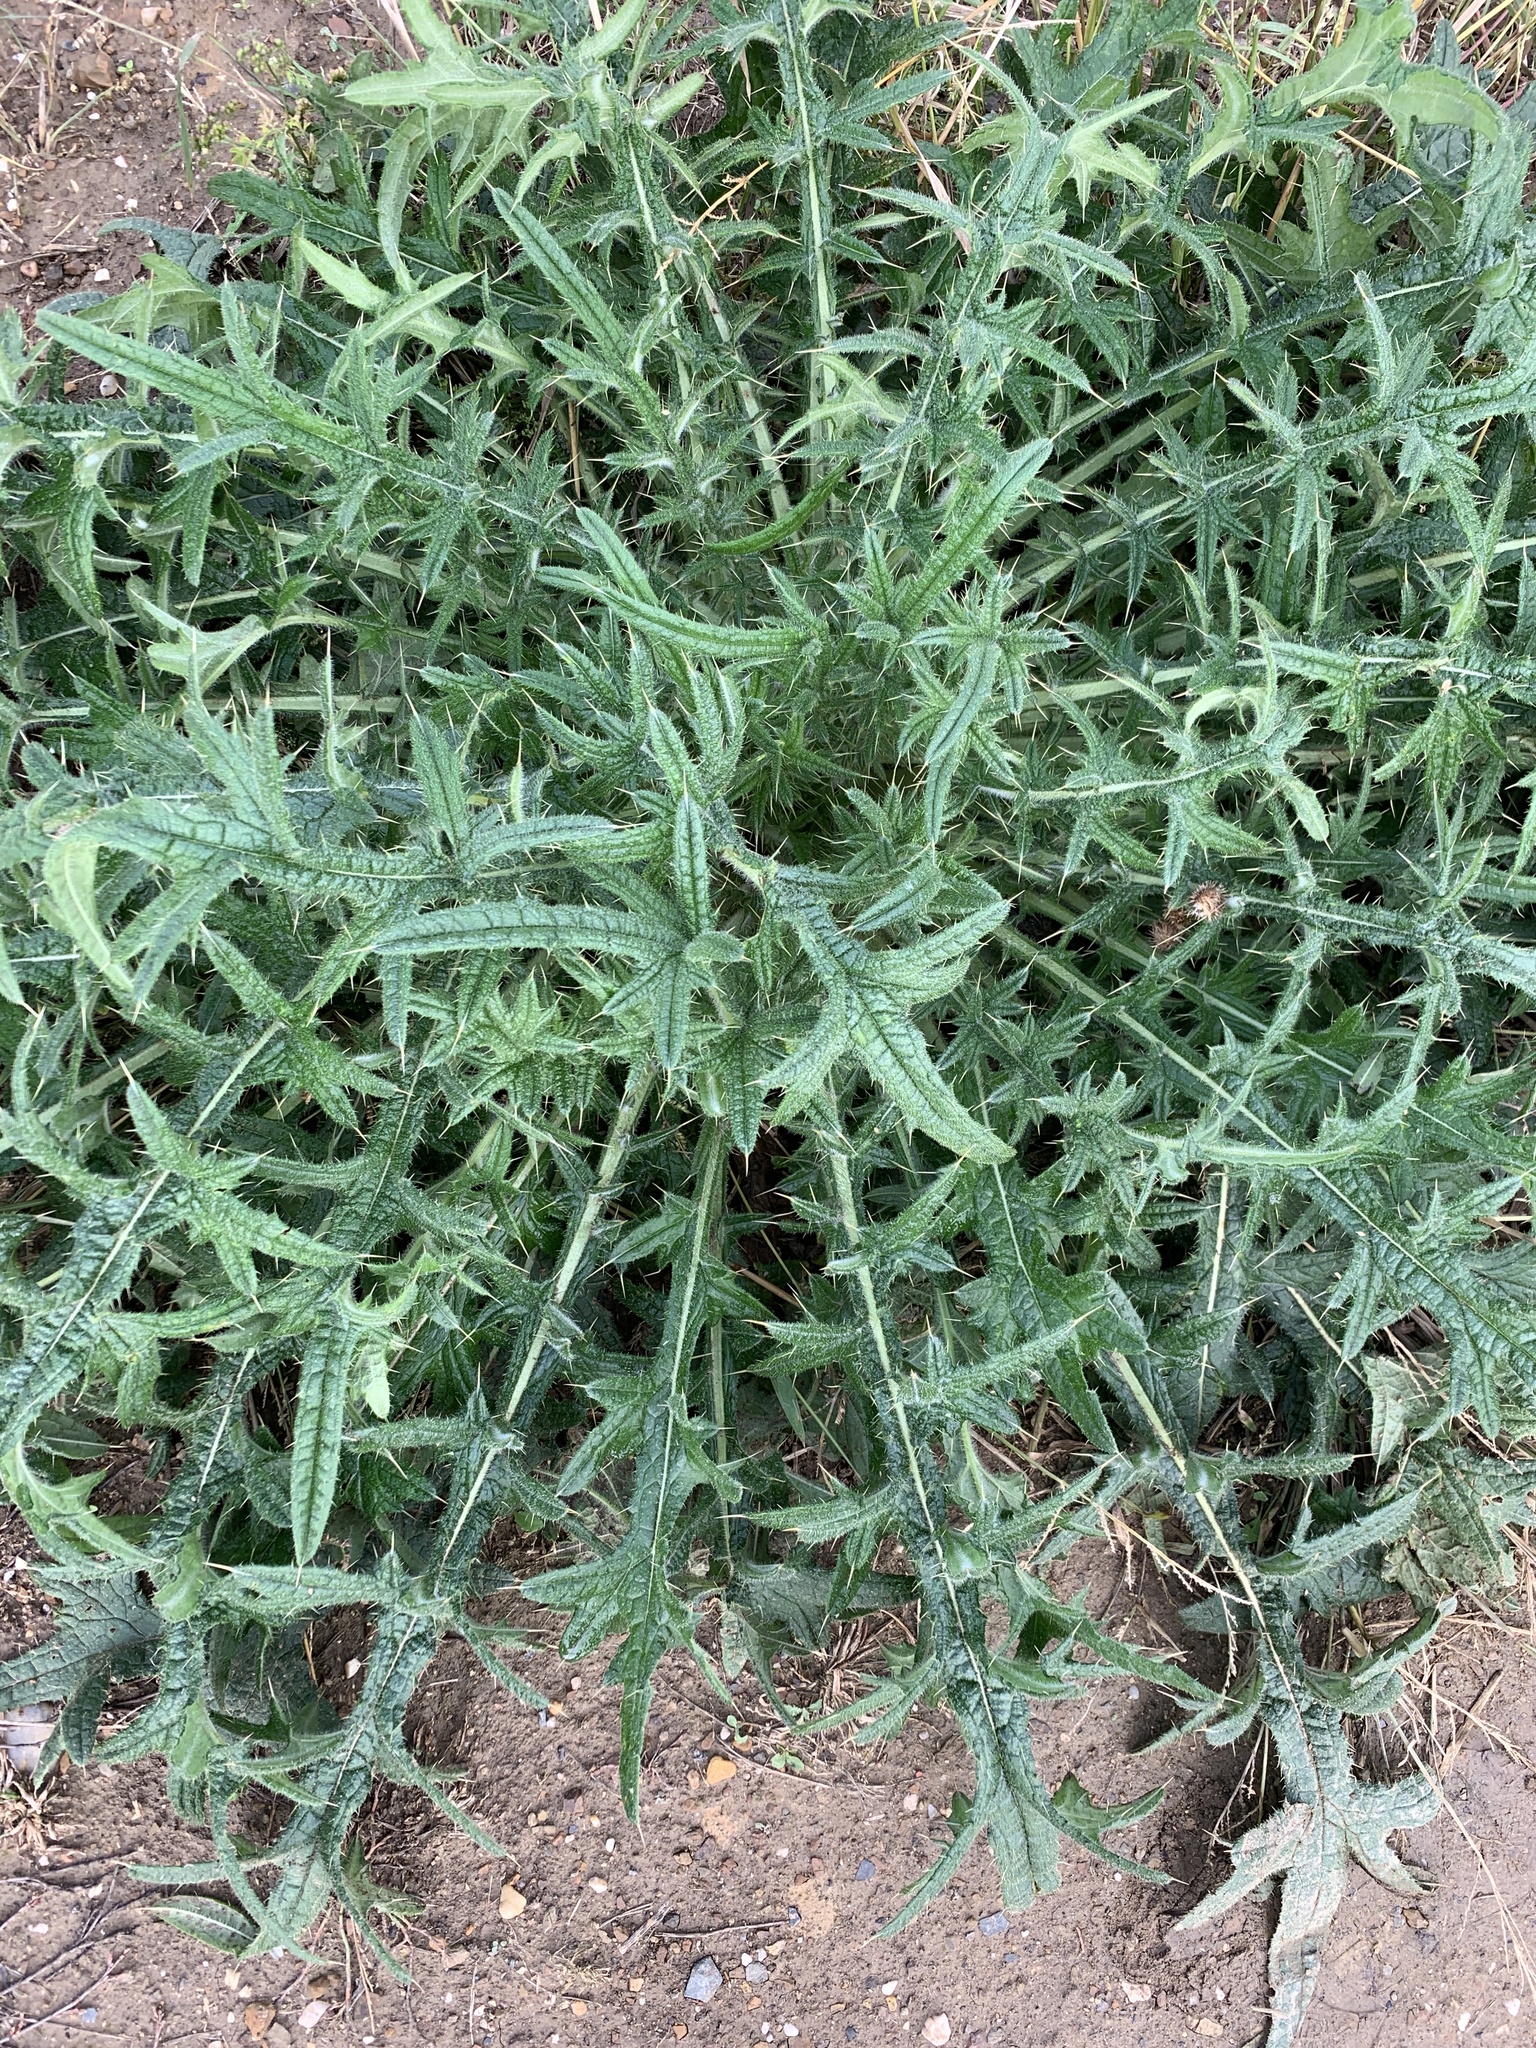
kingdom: Plantae
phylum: Tracheophyta
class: Magnoliopsida
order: Asterales
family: Asteraceae
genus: Cirsium
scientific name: Cirsium vulgare
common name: Bull thistle
